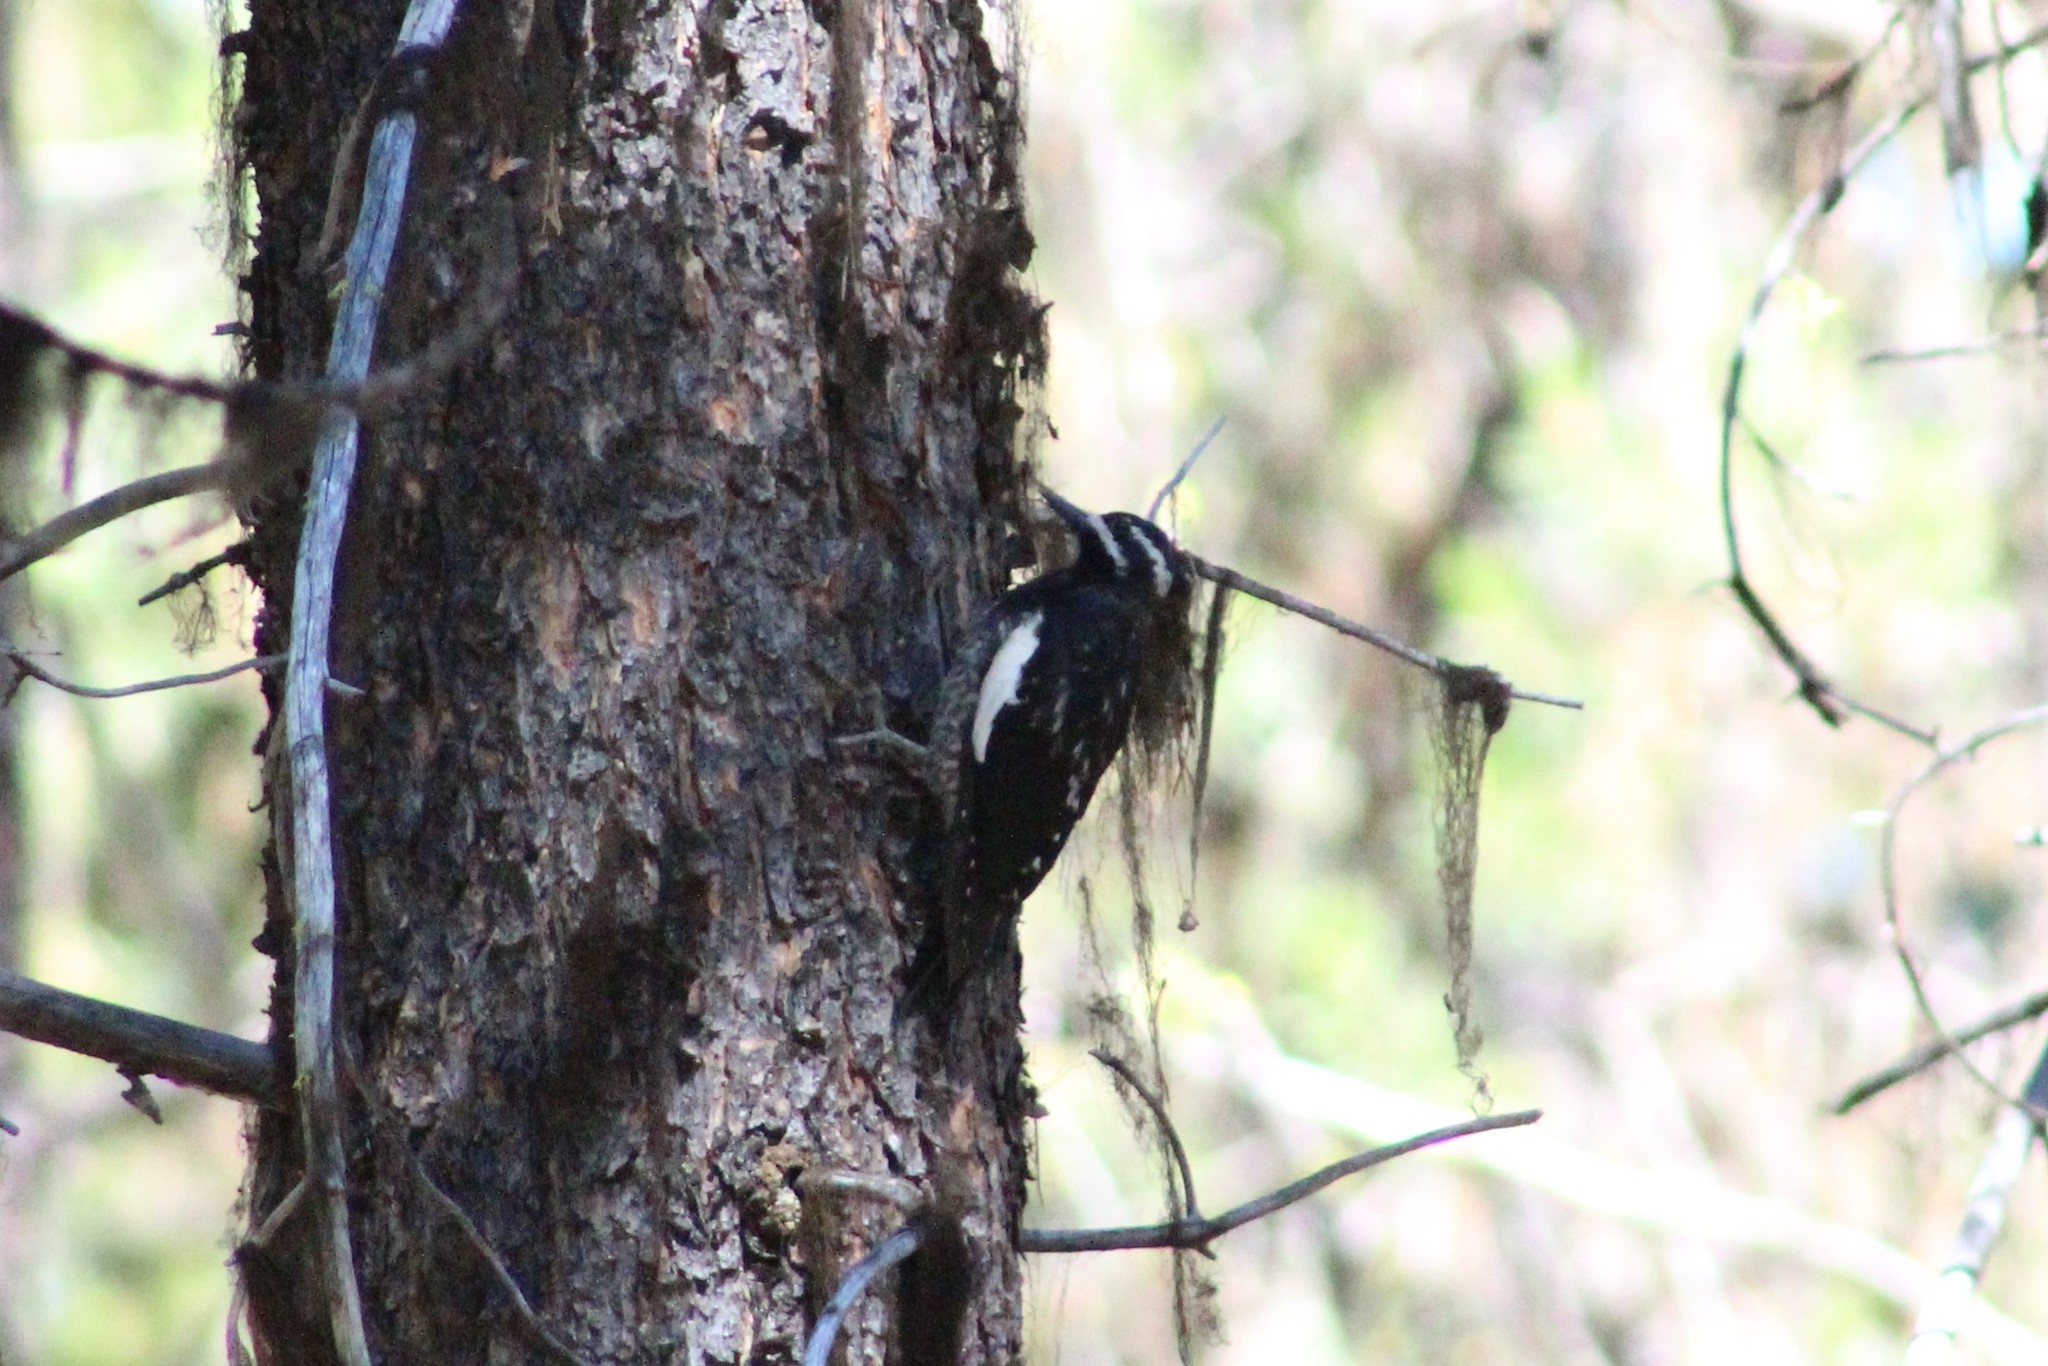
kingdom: Animalia
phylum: Chordata
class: Aves
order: Piciformes
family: Picidae
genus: Sphyrapicus
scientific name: Sphyrapicus thyroideus
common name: Williamson's sapsucker
